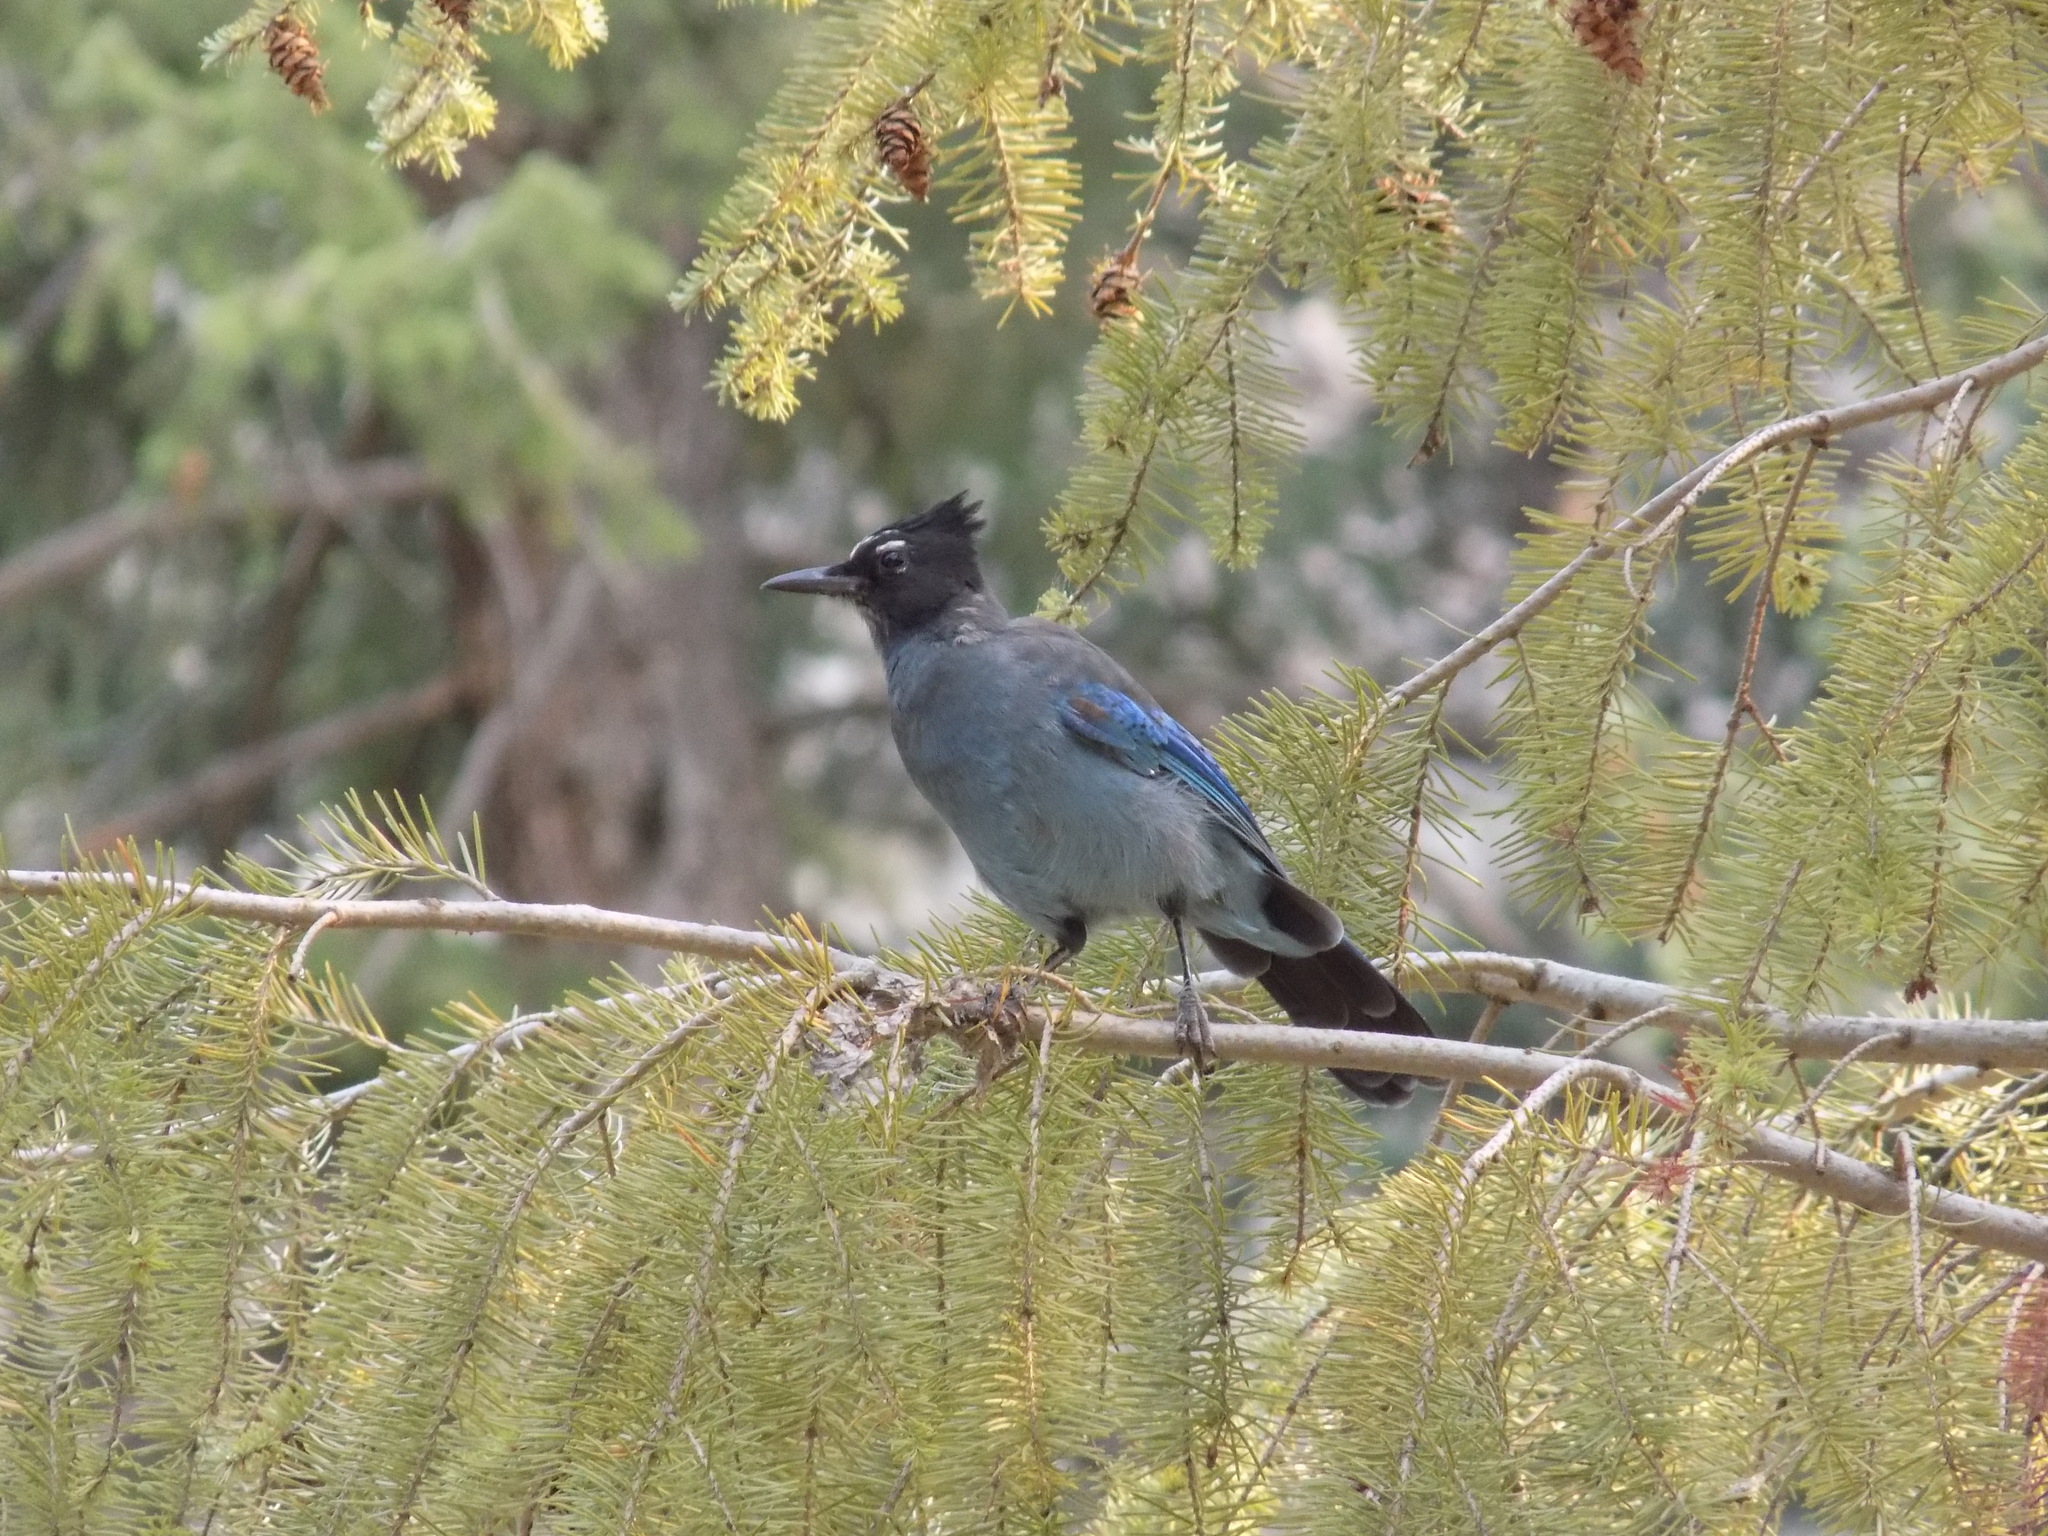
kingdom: Animalia
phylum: Chordata
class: Aves
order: Passeriformes
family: Corvidae
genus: Cyanocitta
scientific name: Cyanocitta stelleri
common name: Steller's jay
